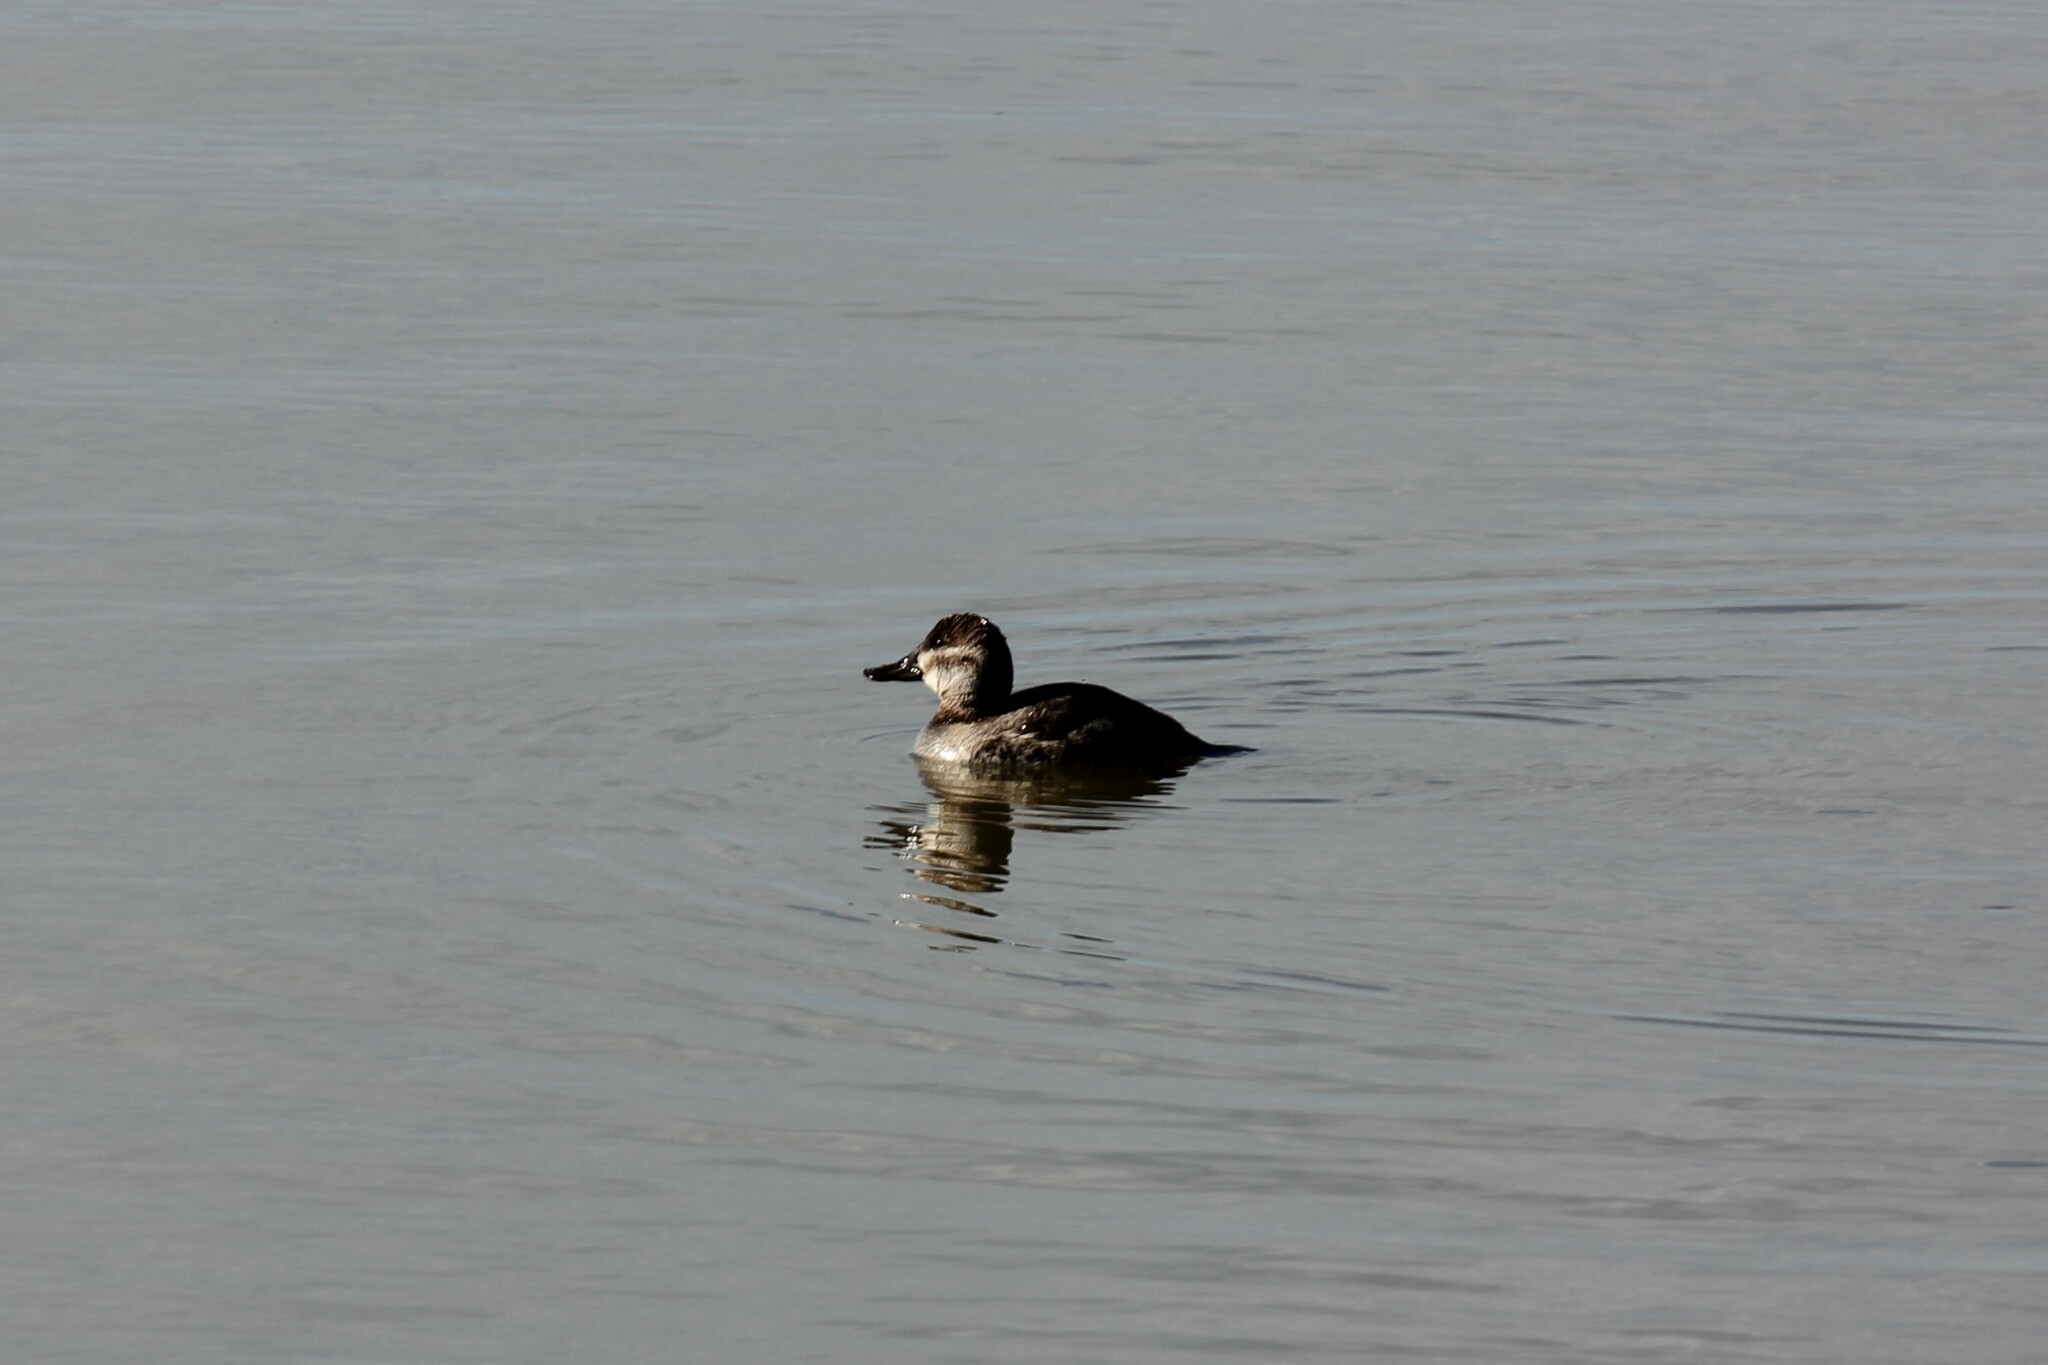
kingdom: Animalia
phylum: Chordata
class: Aves
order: Anseriformes
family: Anatidae
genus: Oxyura
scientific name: Oxyura jamaicensis
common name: Ruddy duck
